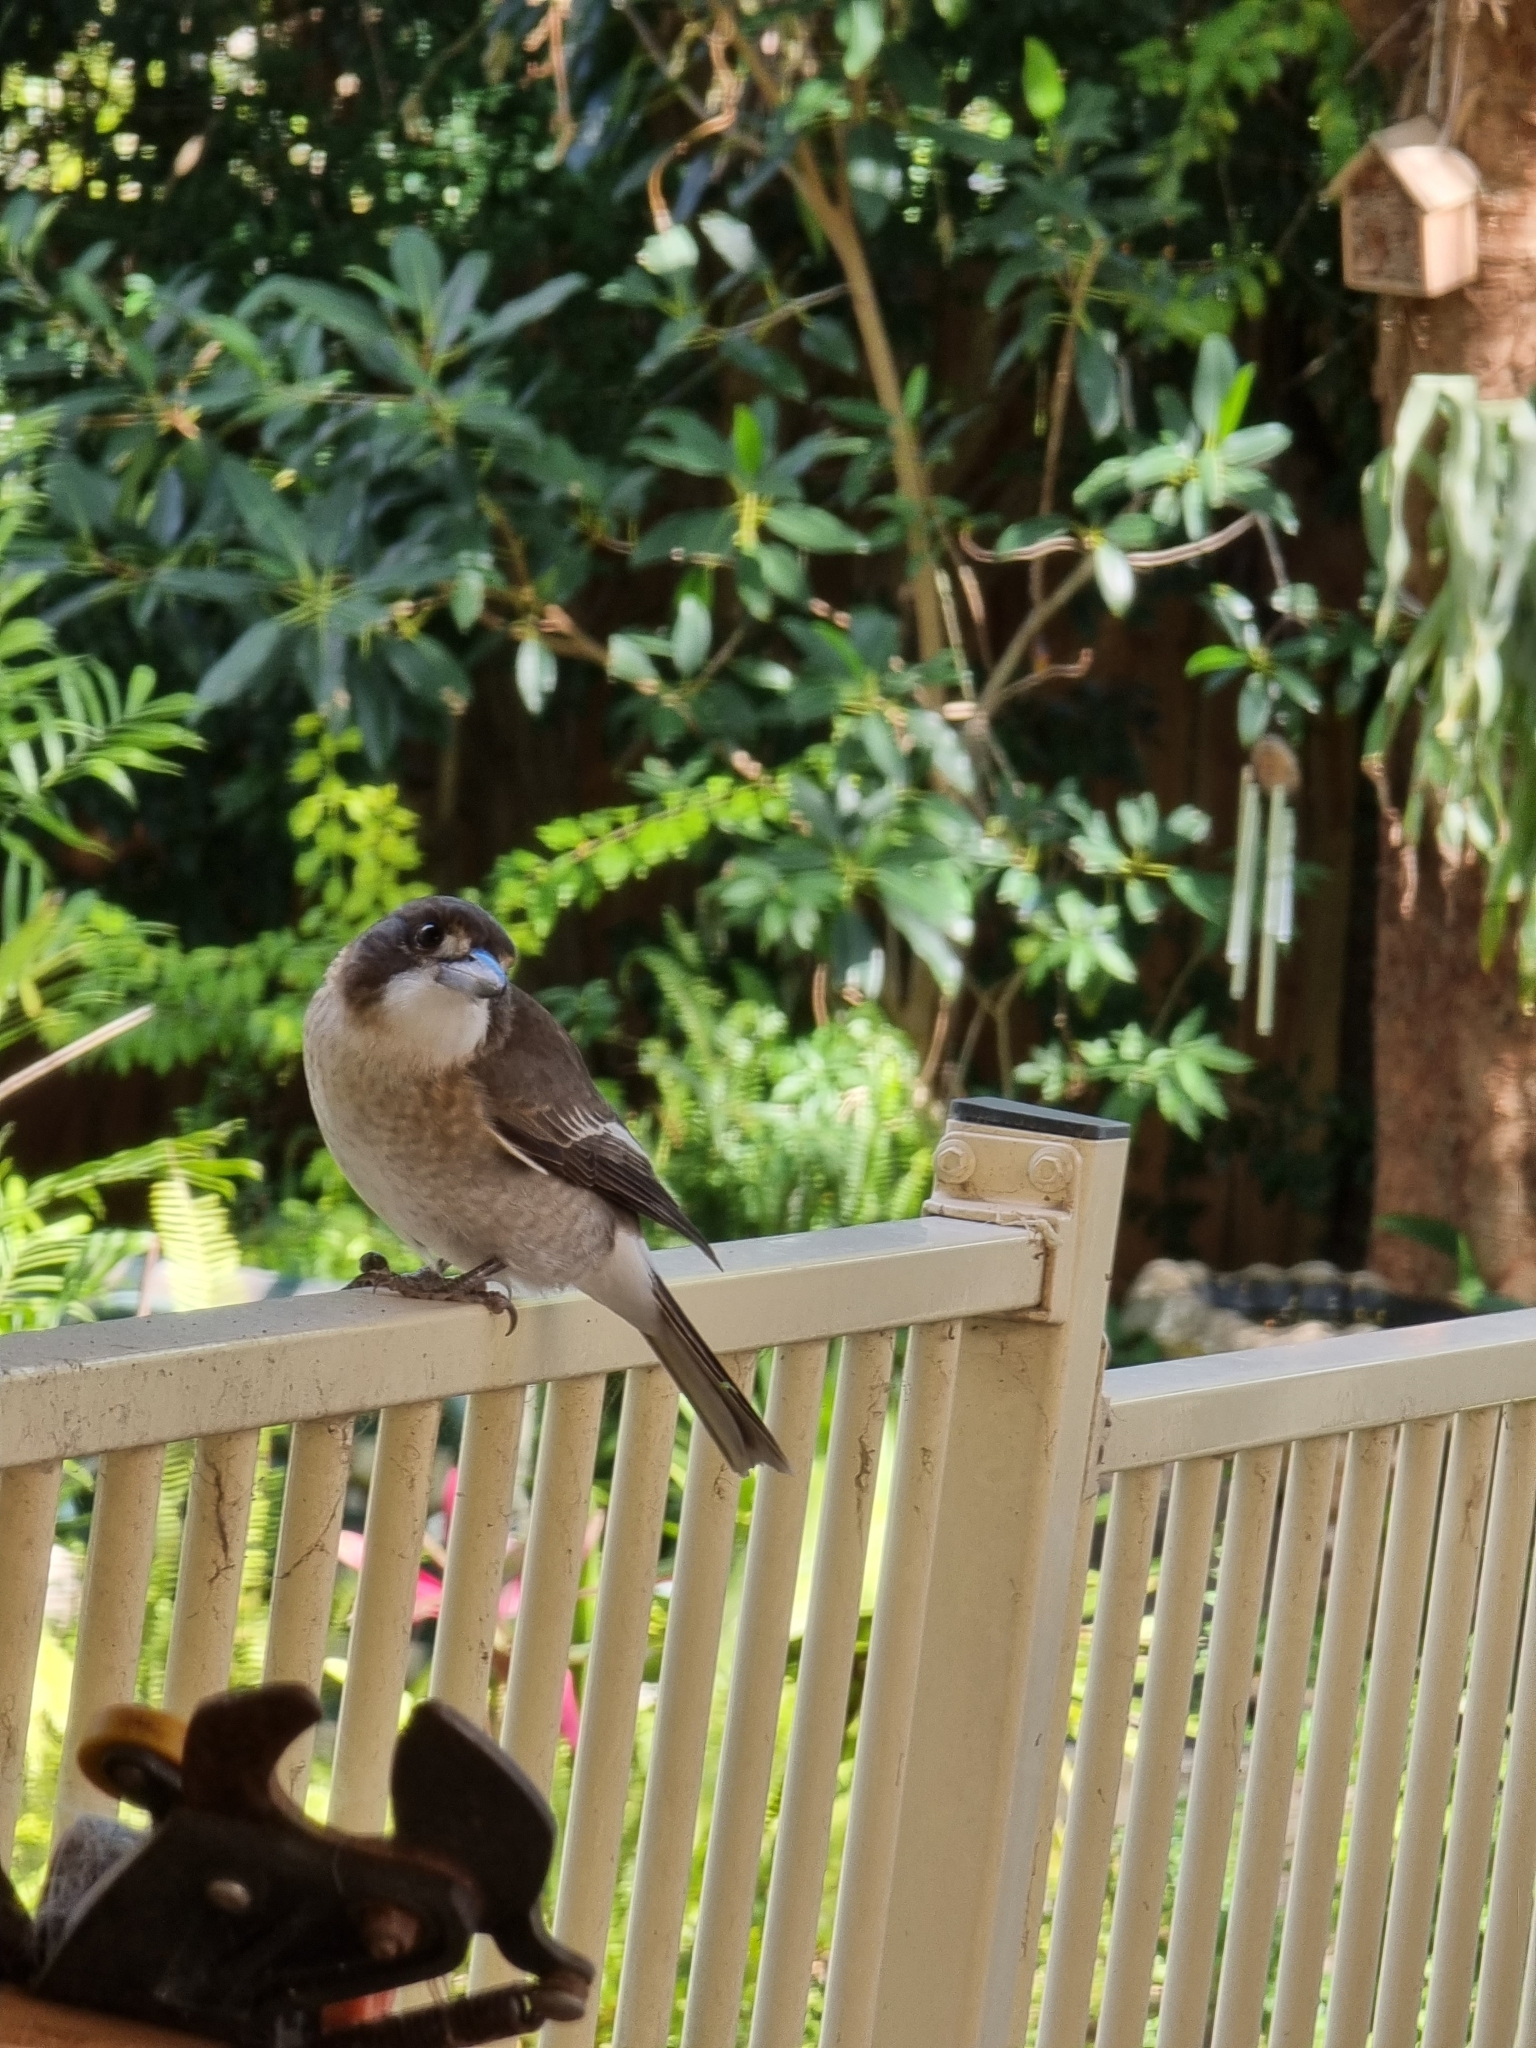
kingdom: Animalia
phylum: Chordata
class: Aves
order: Passeriformes
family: Cracticidae
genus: Cracticus
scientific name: Cracticus torquatus
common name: Grey butcherbird
